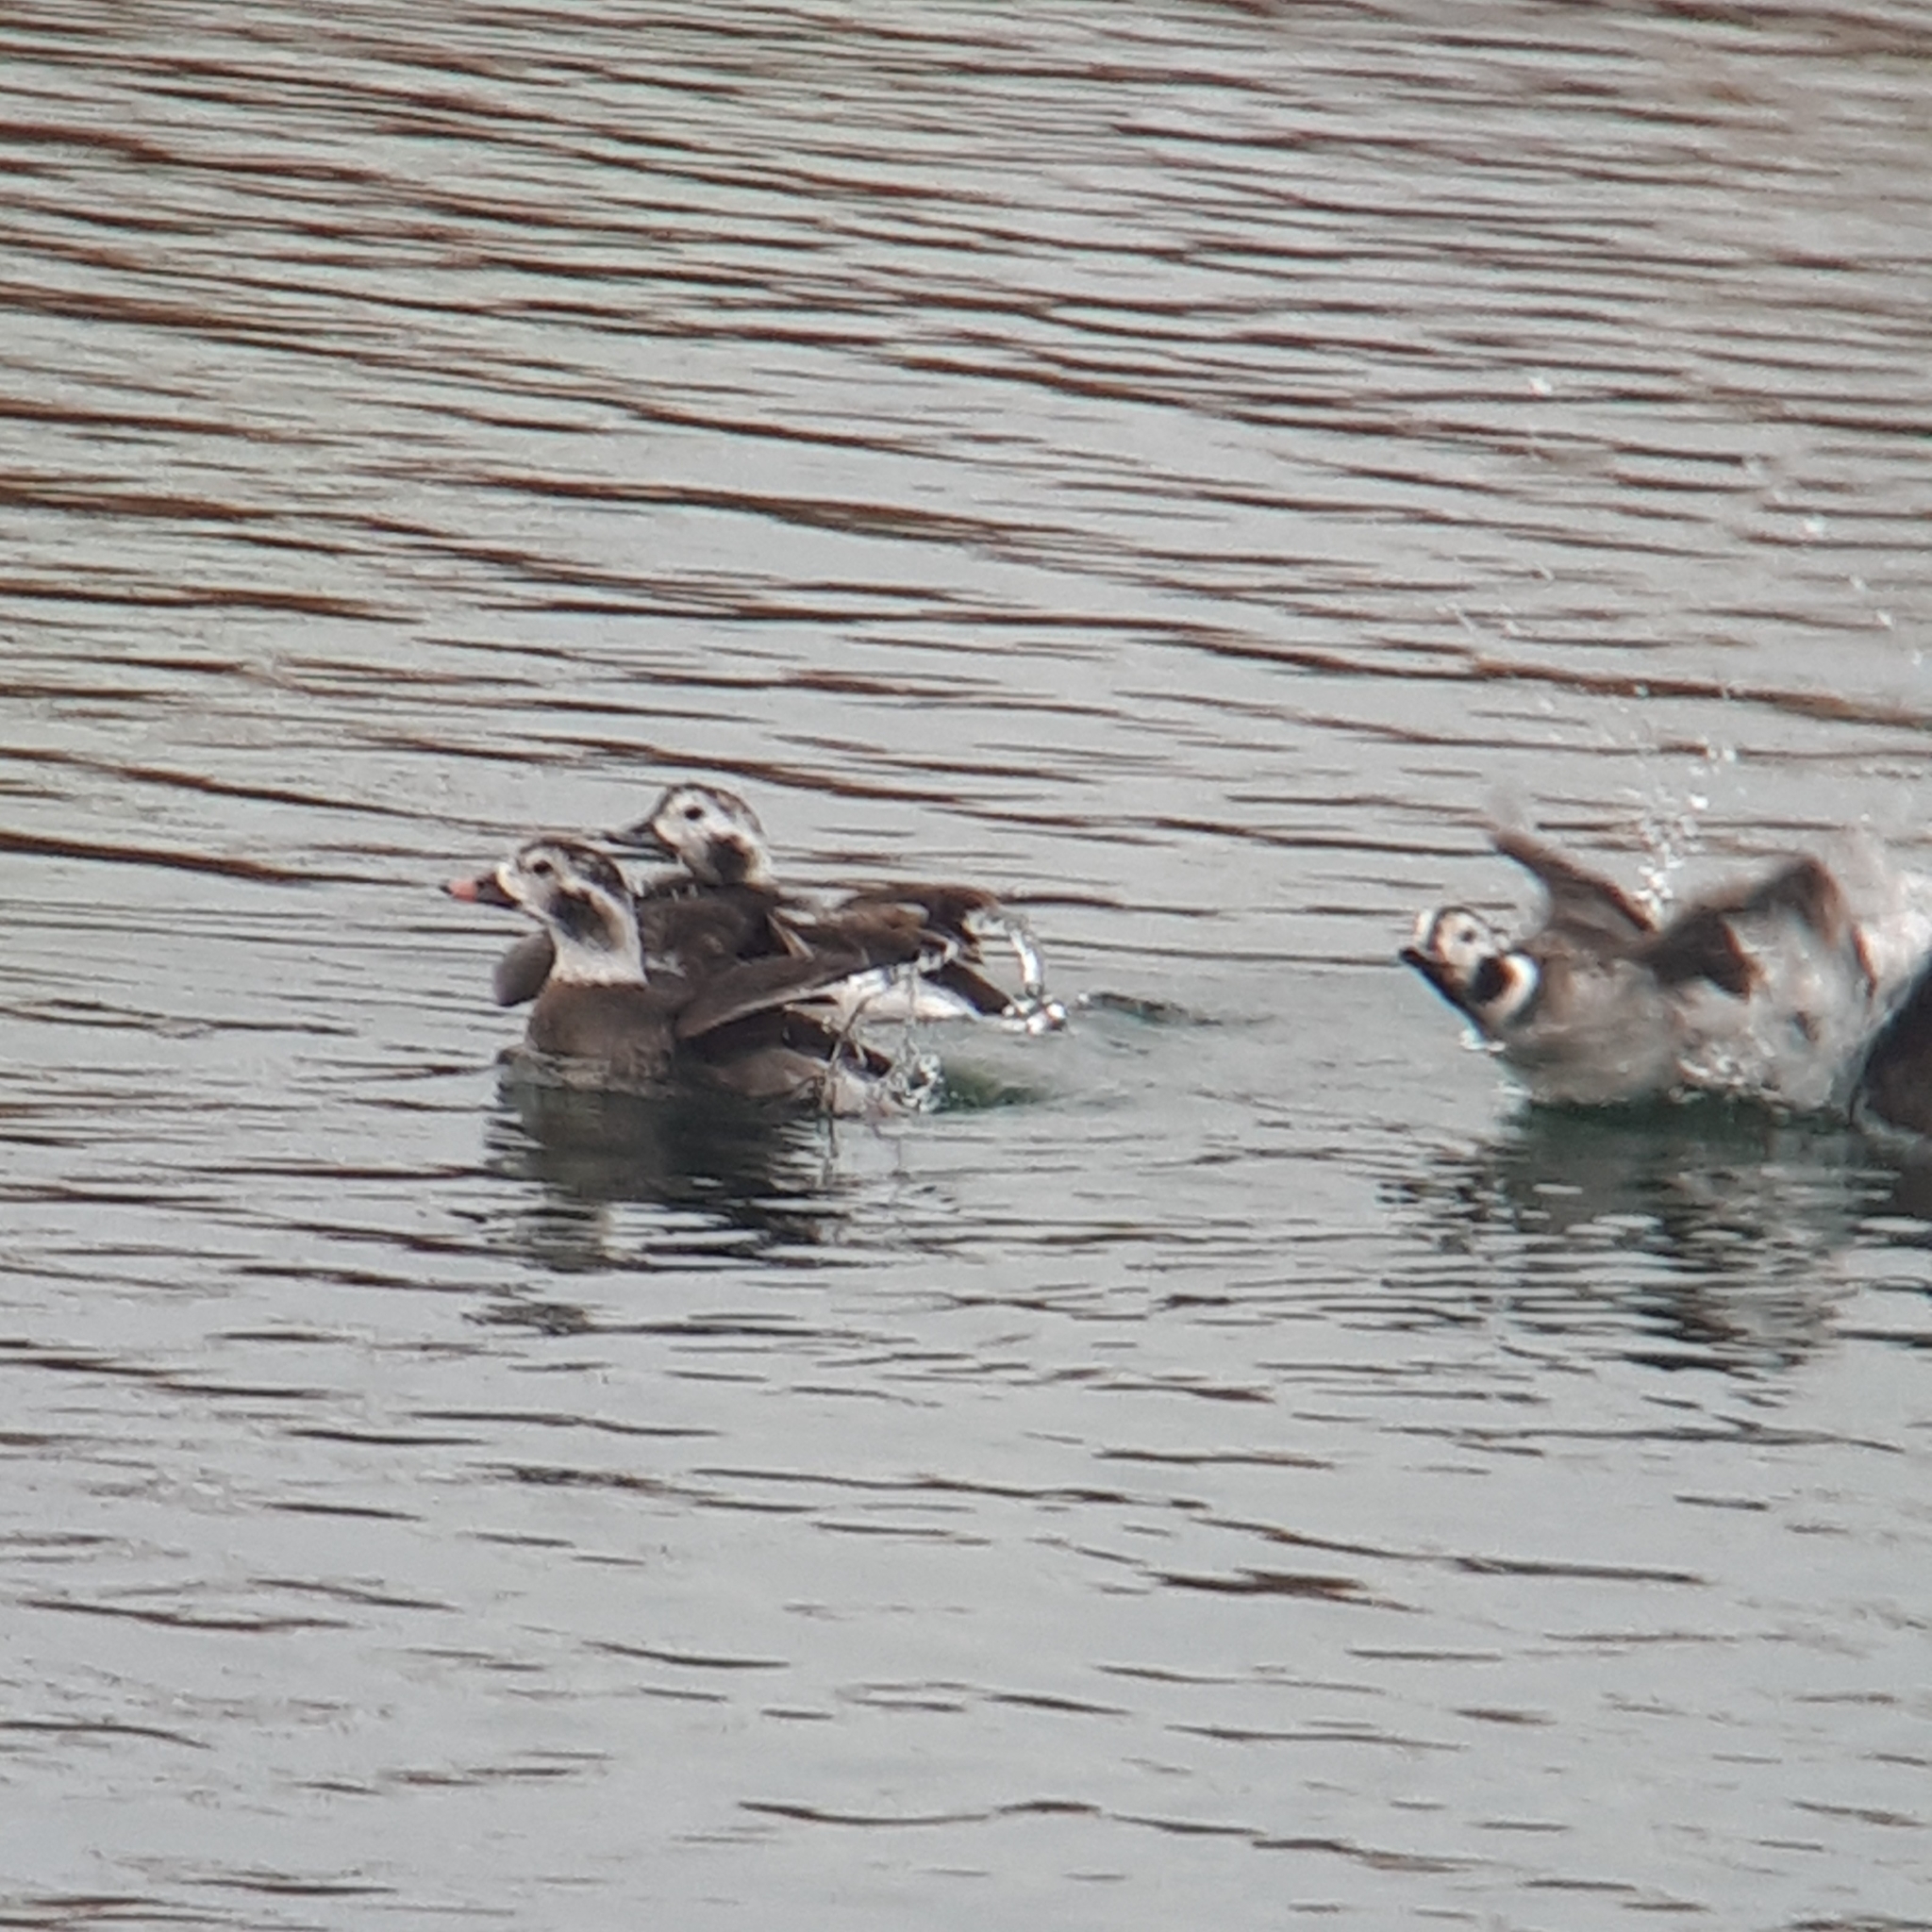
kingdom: Animalia
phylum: Chordata
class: Aves
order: Anseriformes
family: Anatidae
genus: Clangula
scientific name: Clangula hyemalis
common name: Long-tailed duck
